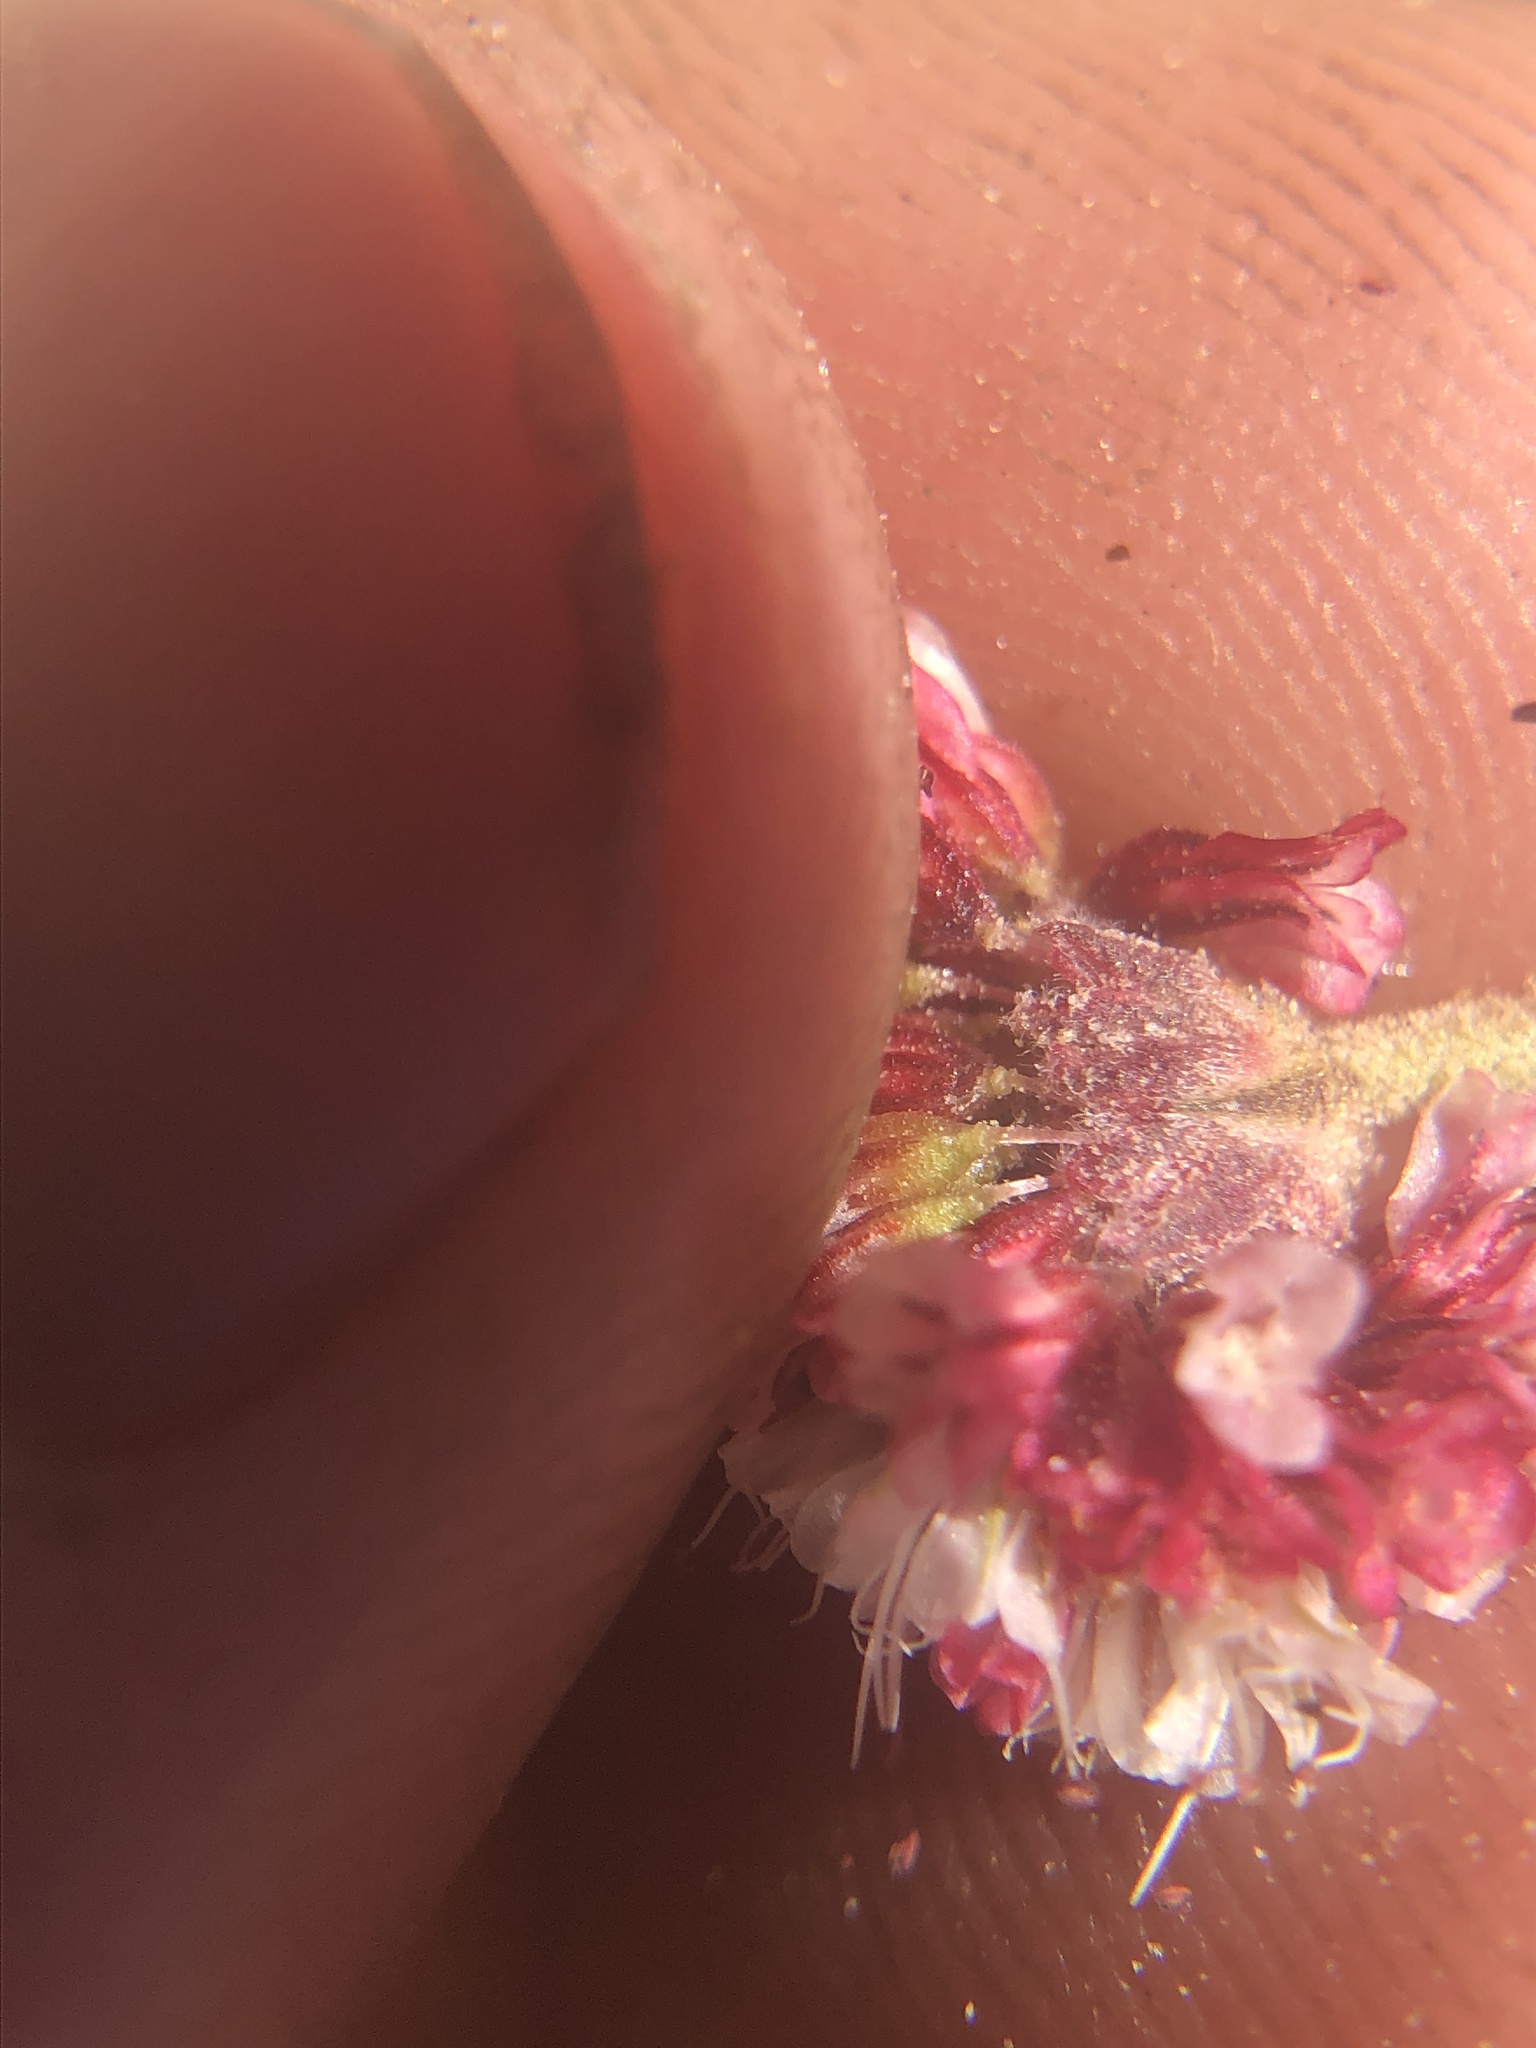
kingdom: Plantae
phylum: Tracheophyta
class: Magnoliopsida
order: Caryophyllales
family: Polygonaceae
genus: Eriogonum
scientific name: Eriogonum gracilipes
